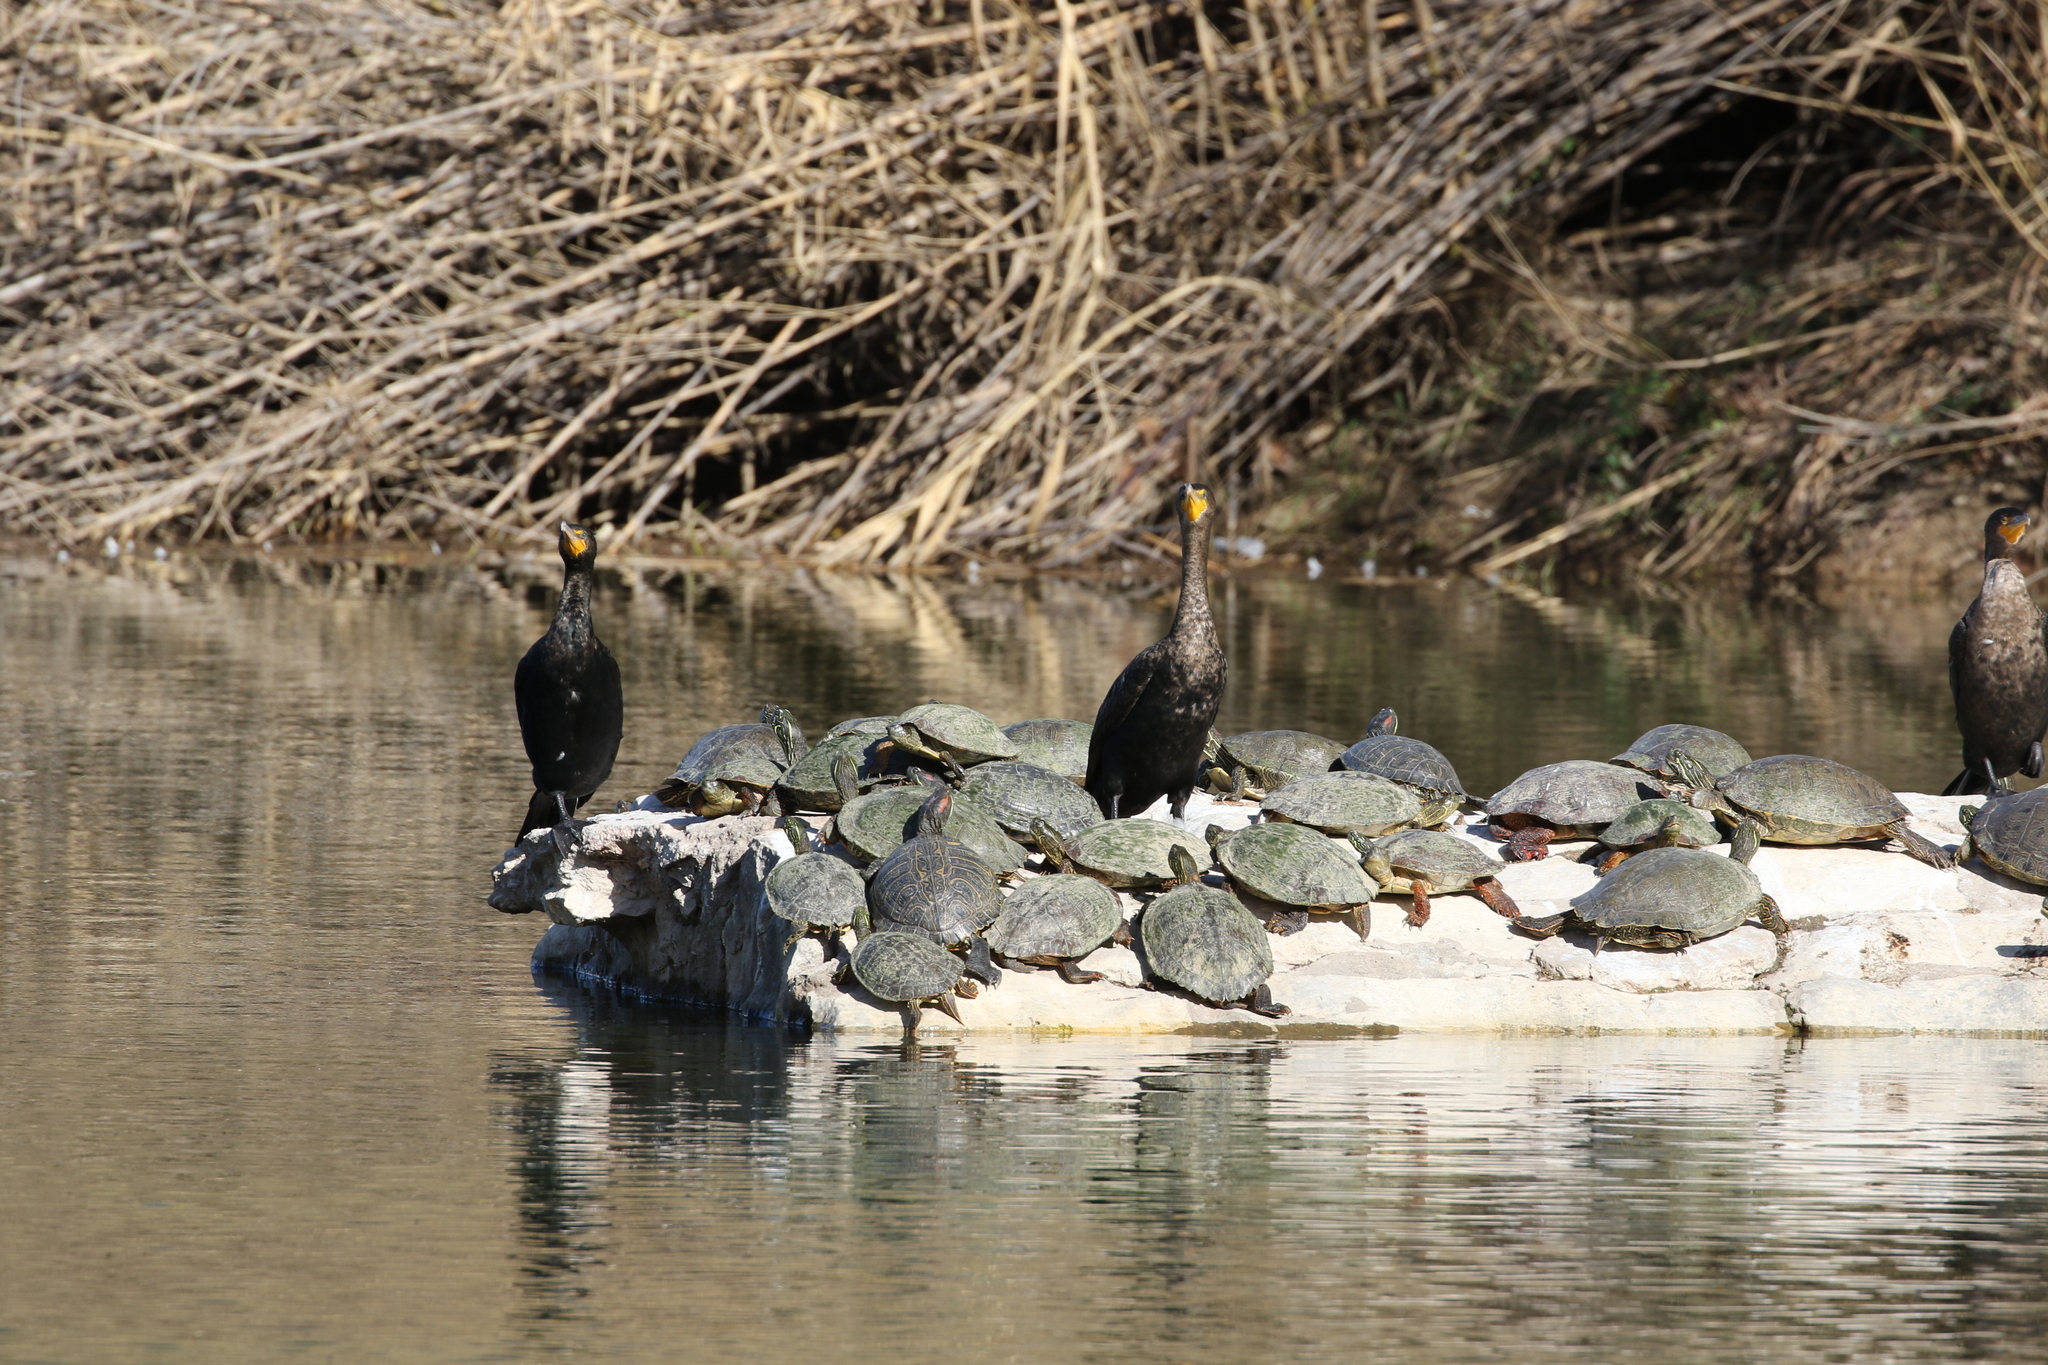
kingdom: Animalia
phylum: Chordata
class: Aves
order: Suliformes
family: Phalacrocoracidae
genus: Phalacrocorax
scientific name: Phalacrocorax auritus
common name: Double-crested cormorant
